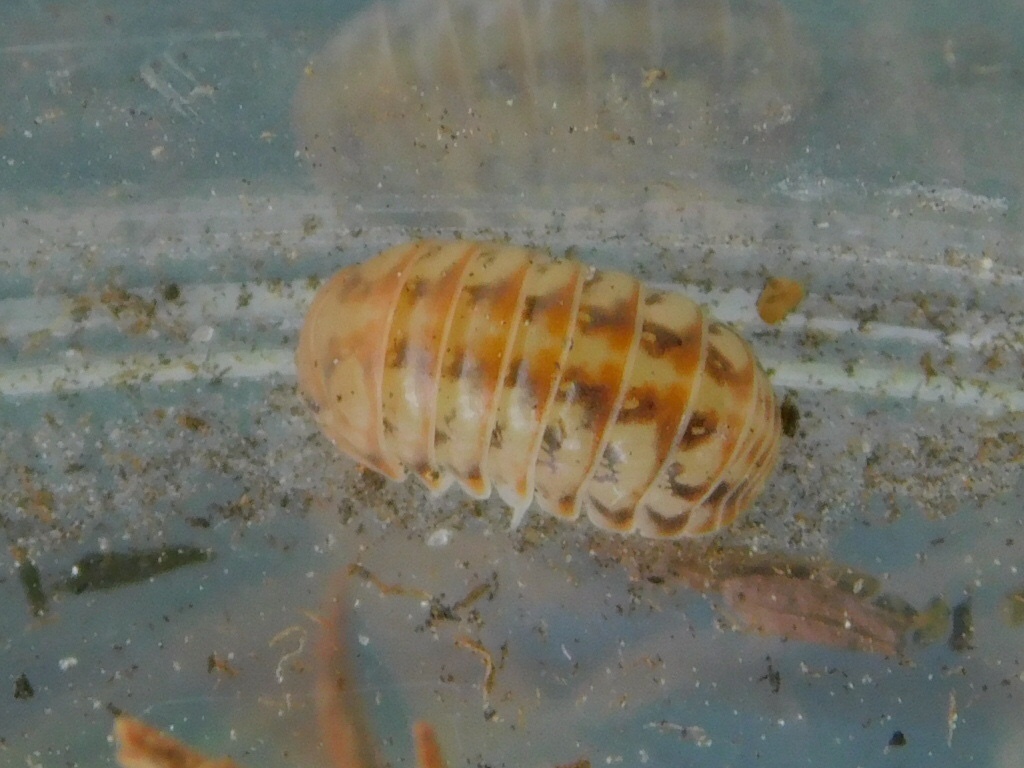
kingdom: Animalia
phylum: Arthropoda
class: Malacostraca
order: Isopoda
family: Armadillidae
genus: Venezillo
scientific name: Venezillo parvus
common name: Pillbug
